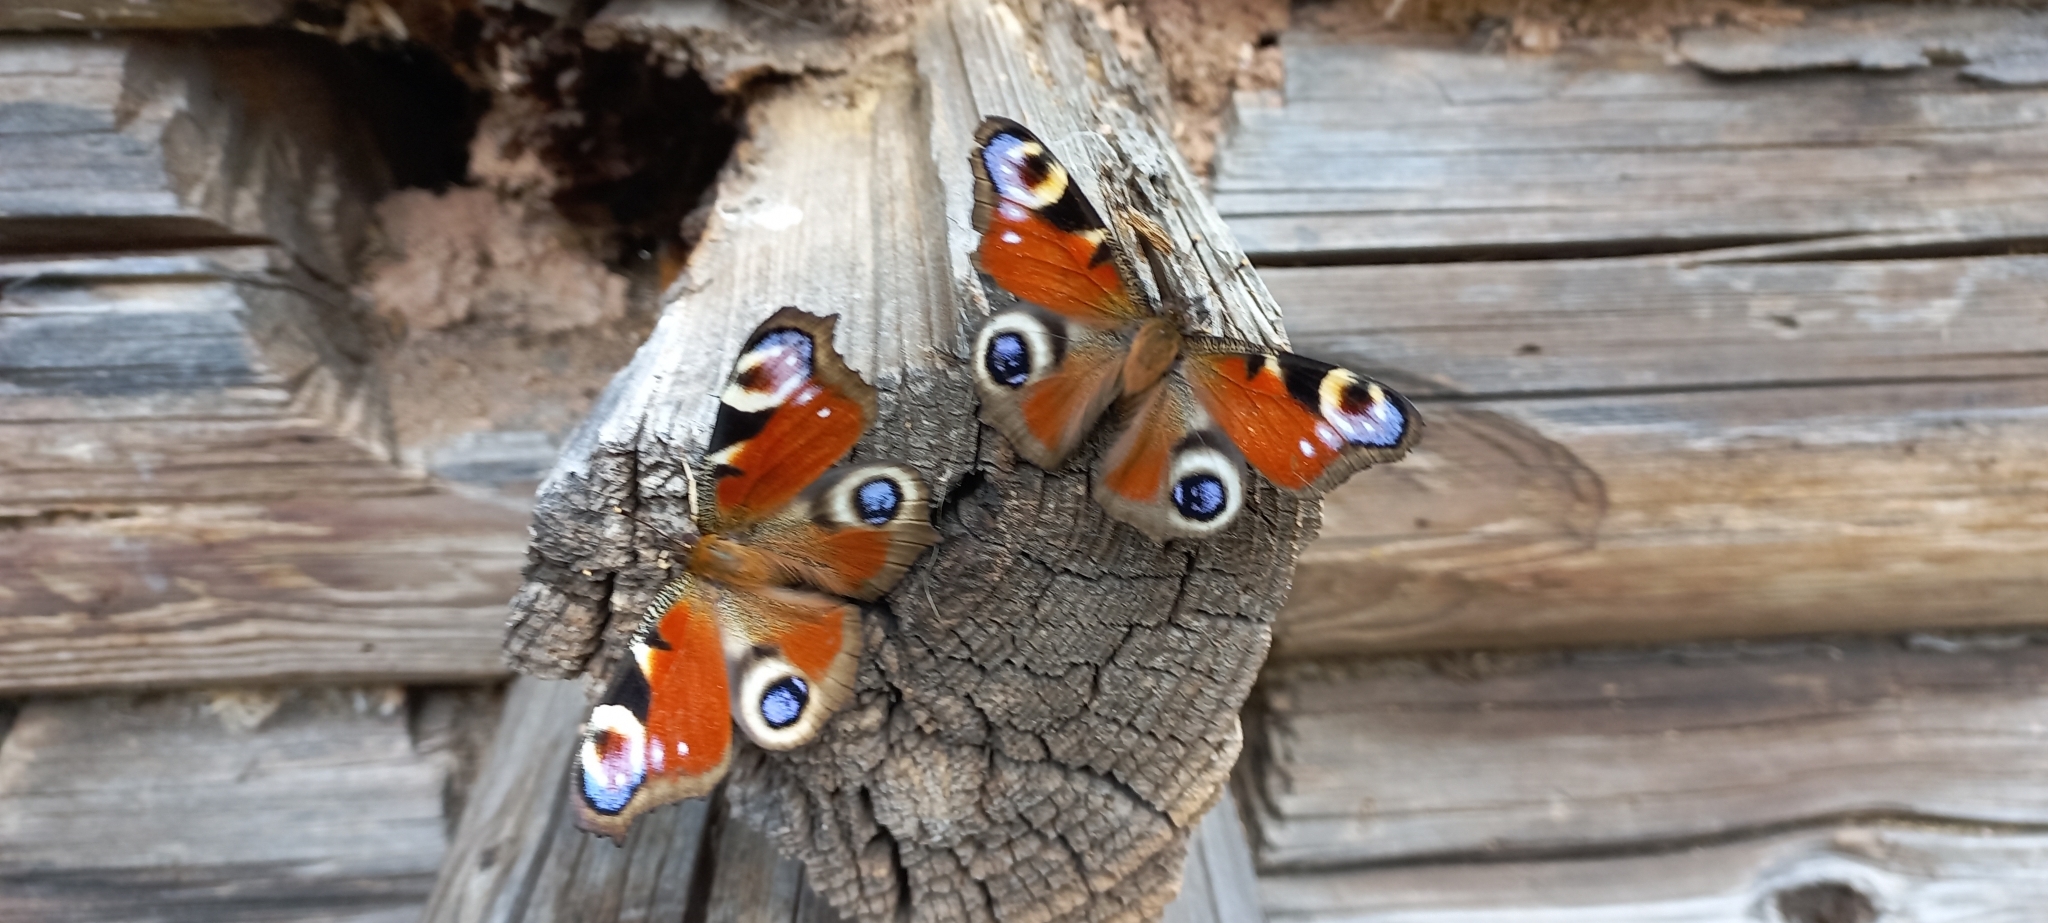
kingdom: Animalia
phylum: Arthropoda
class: Insecta
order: Lepidoptera
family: Nymphalidae
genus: Aglais
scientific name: Aglais io
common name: Peacock
